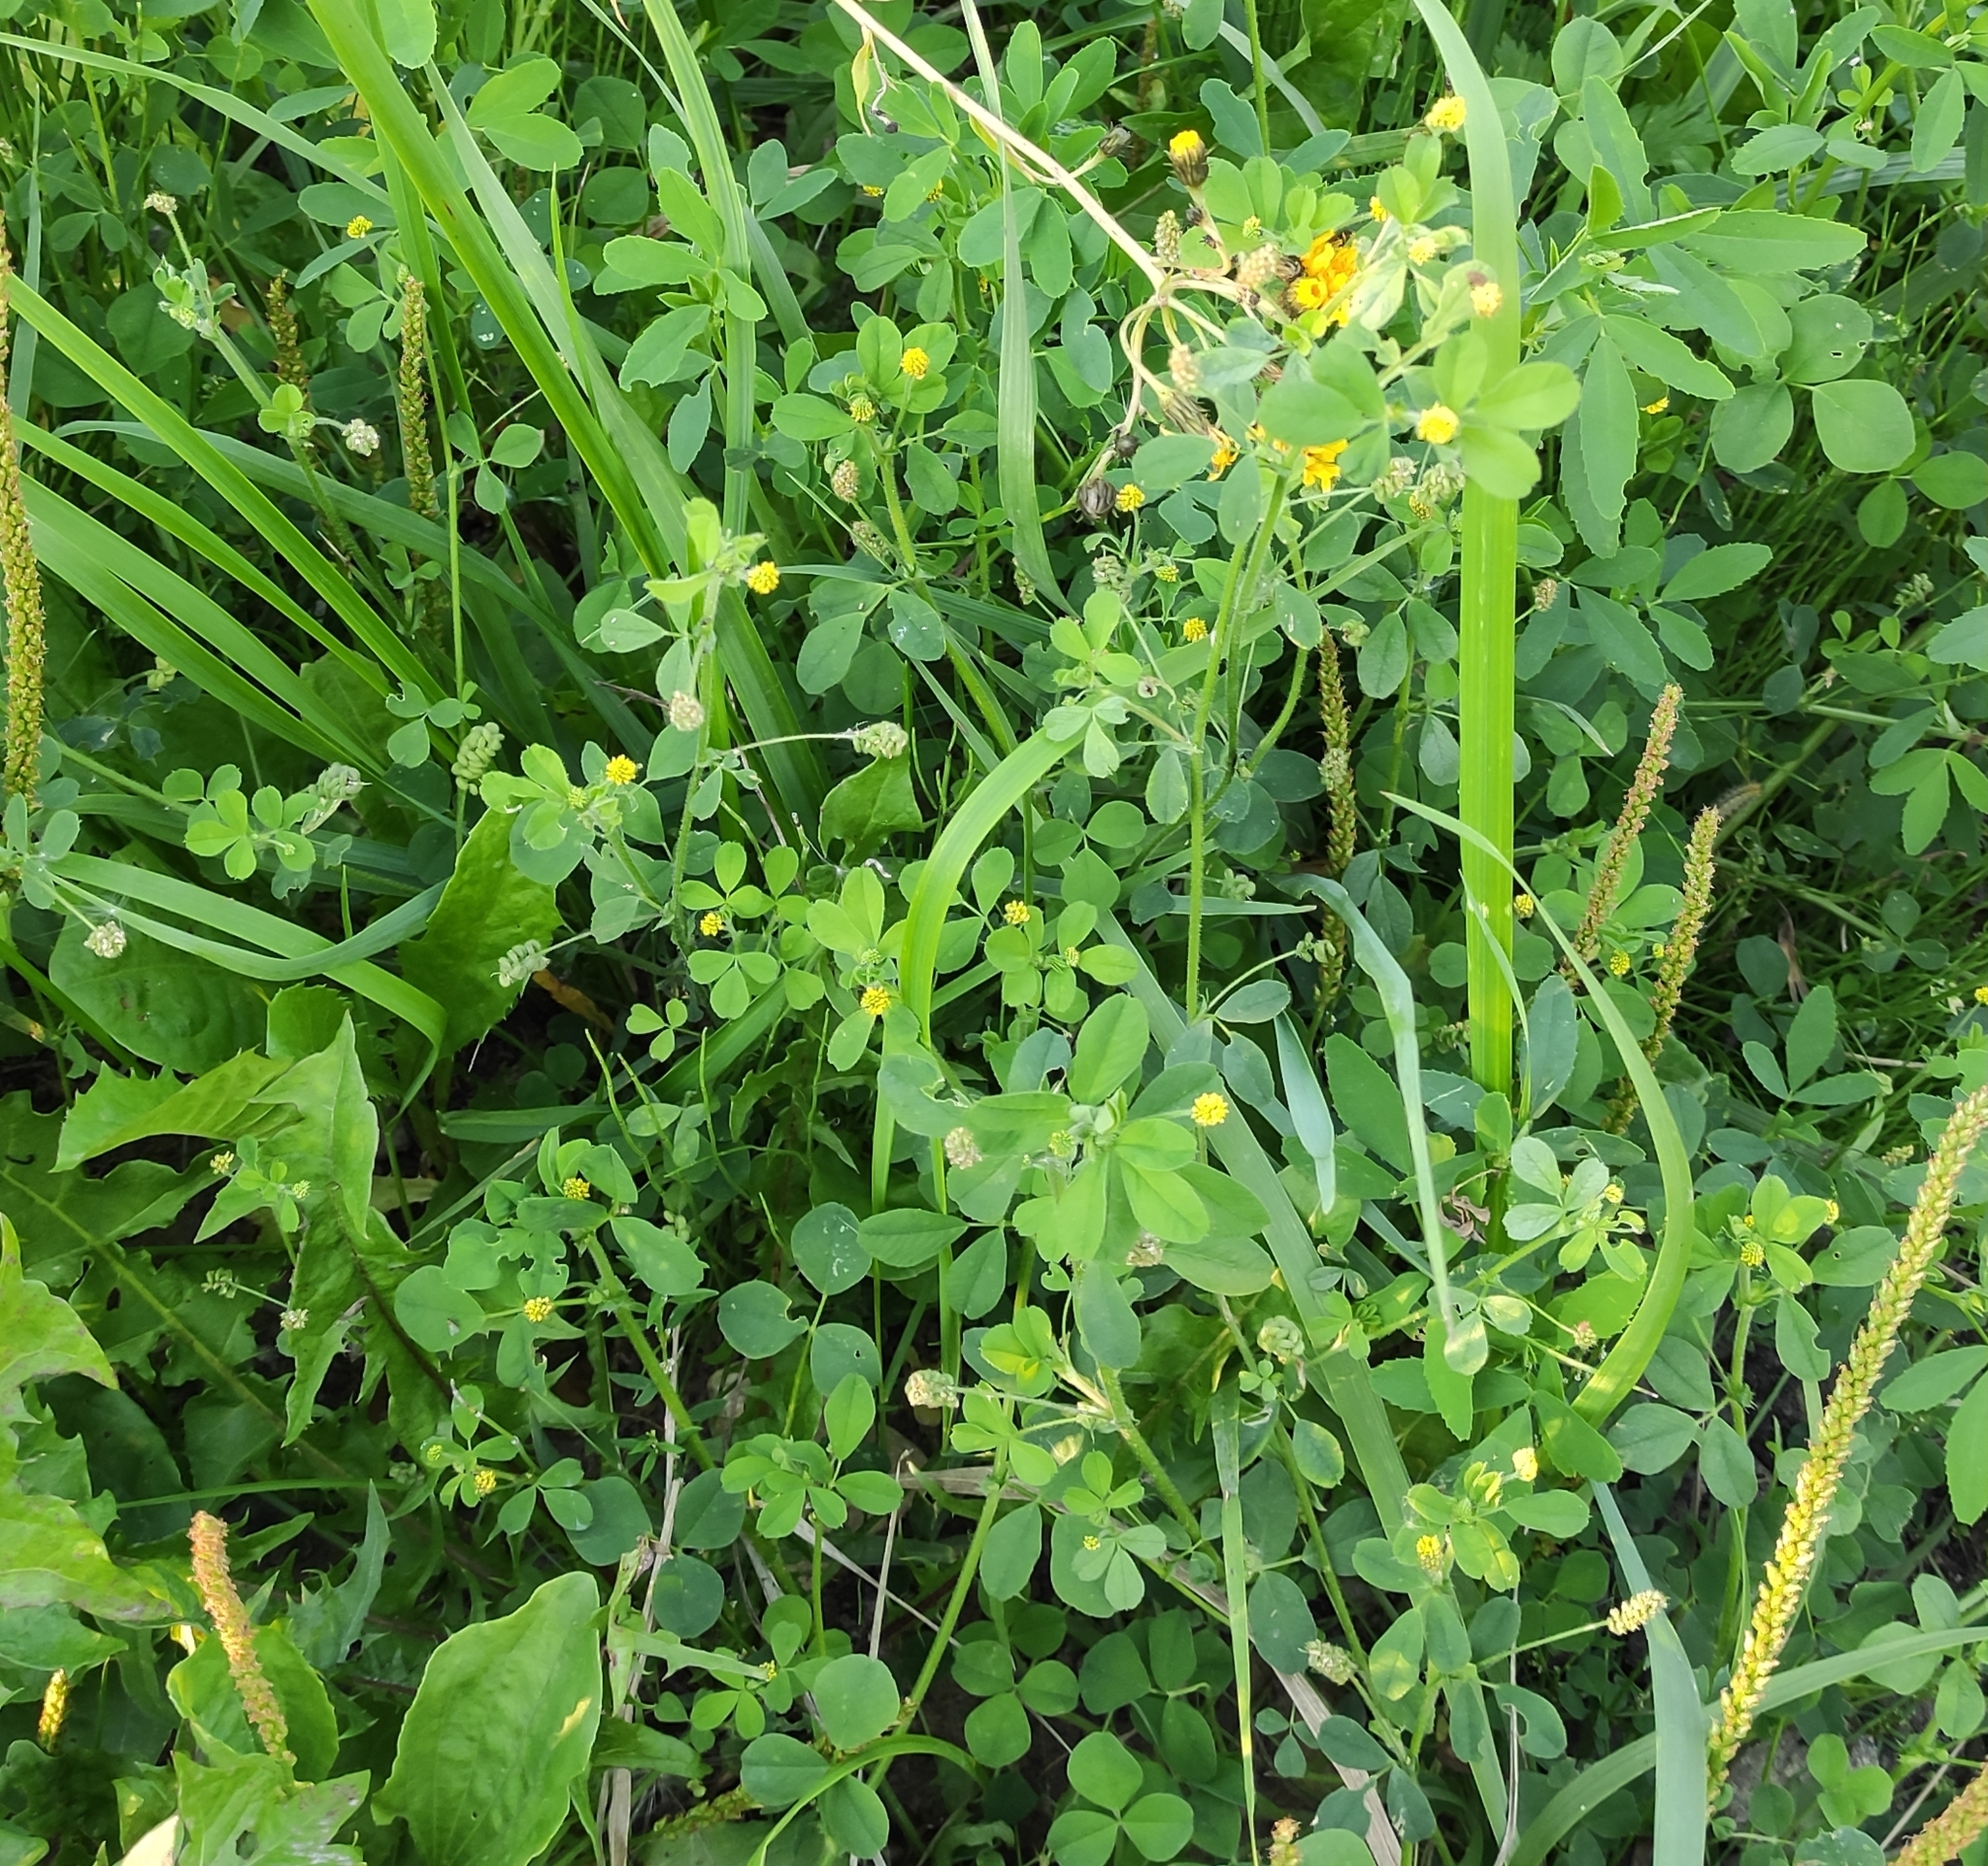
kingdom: Plantae
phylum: Tracheophyta
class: Magnoliopsida
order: Fabales
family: Fabaceae
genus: Medicago
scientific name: Medicago lupulina
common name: Black medick
